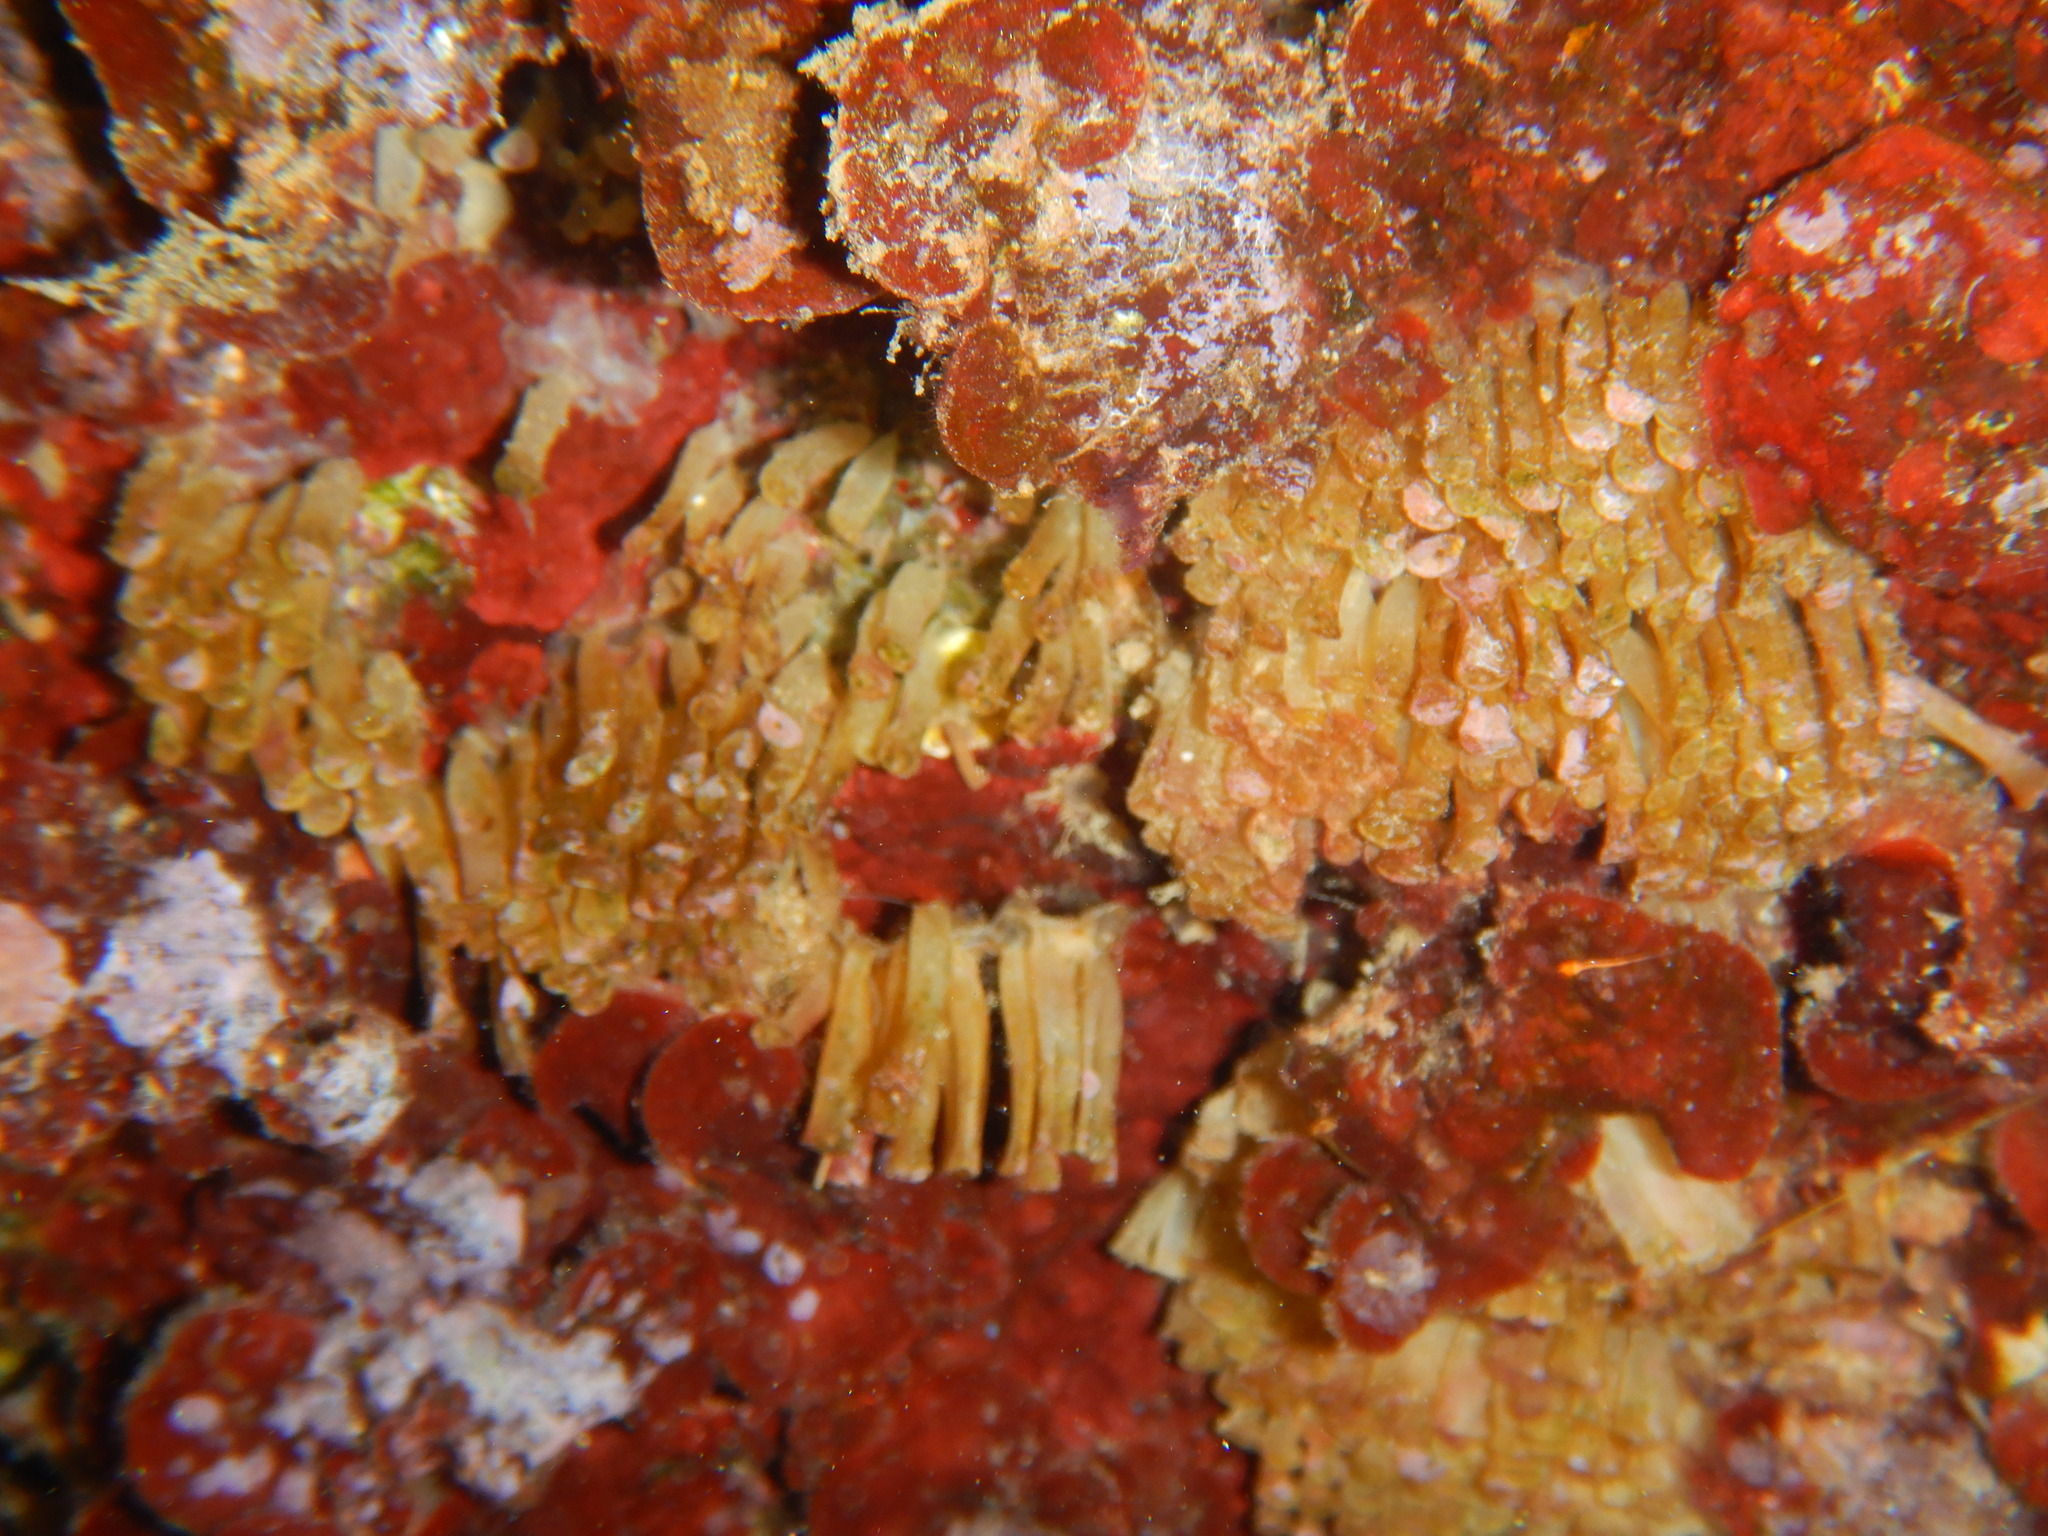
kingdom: Animalia
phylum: Mollusca
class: Gastropoda
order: Neogastropoda
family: Muricidae
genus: Stramonita
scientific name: Stramonita haemastoma
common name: Florida dog winkle
